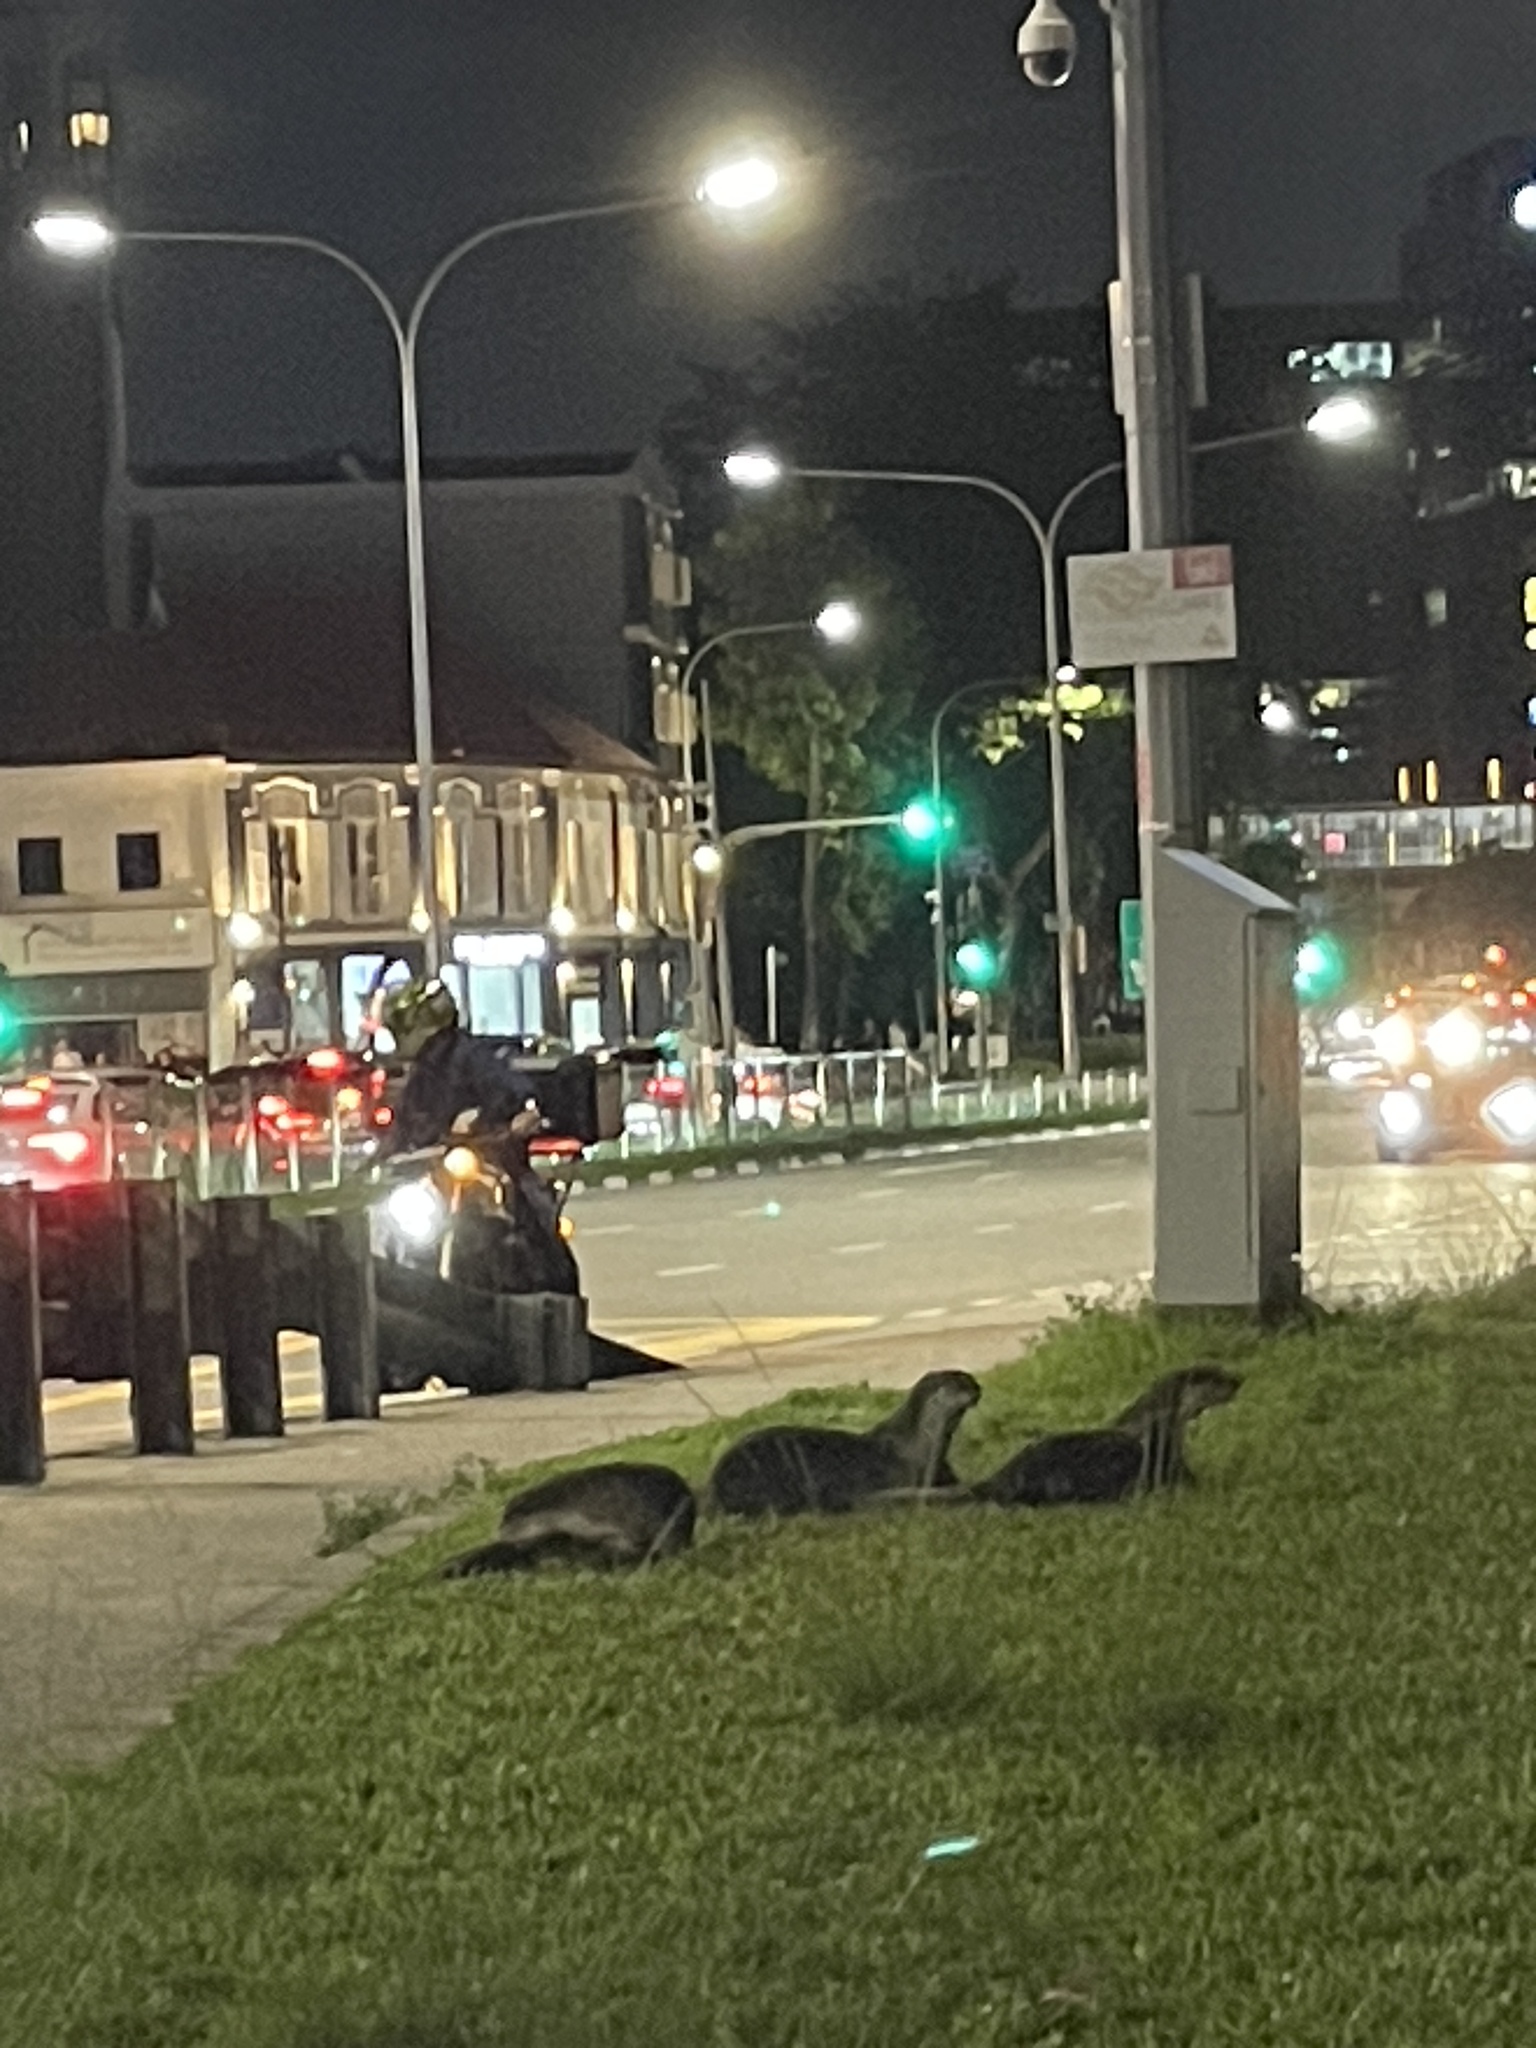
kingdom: Animalia
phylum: Chordata
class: Mammalia
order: Carnivora
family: Mustelidae
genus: Lutrogale
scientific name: Lutrogale perspicillata
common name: Smooth-coated otter
